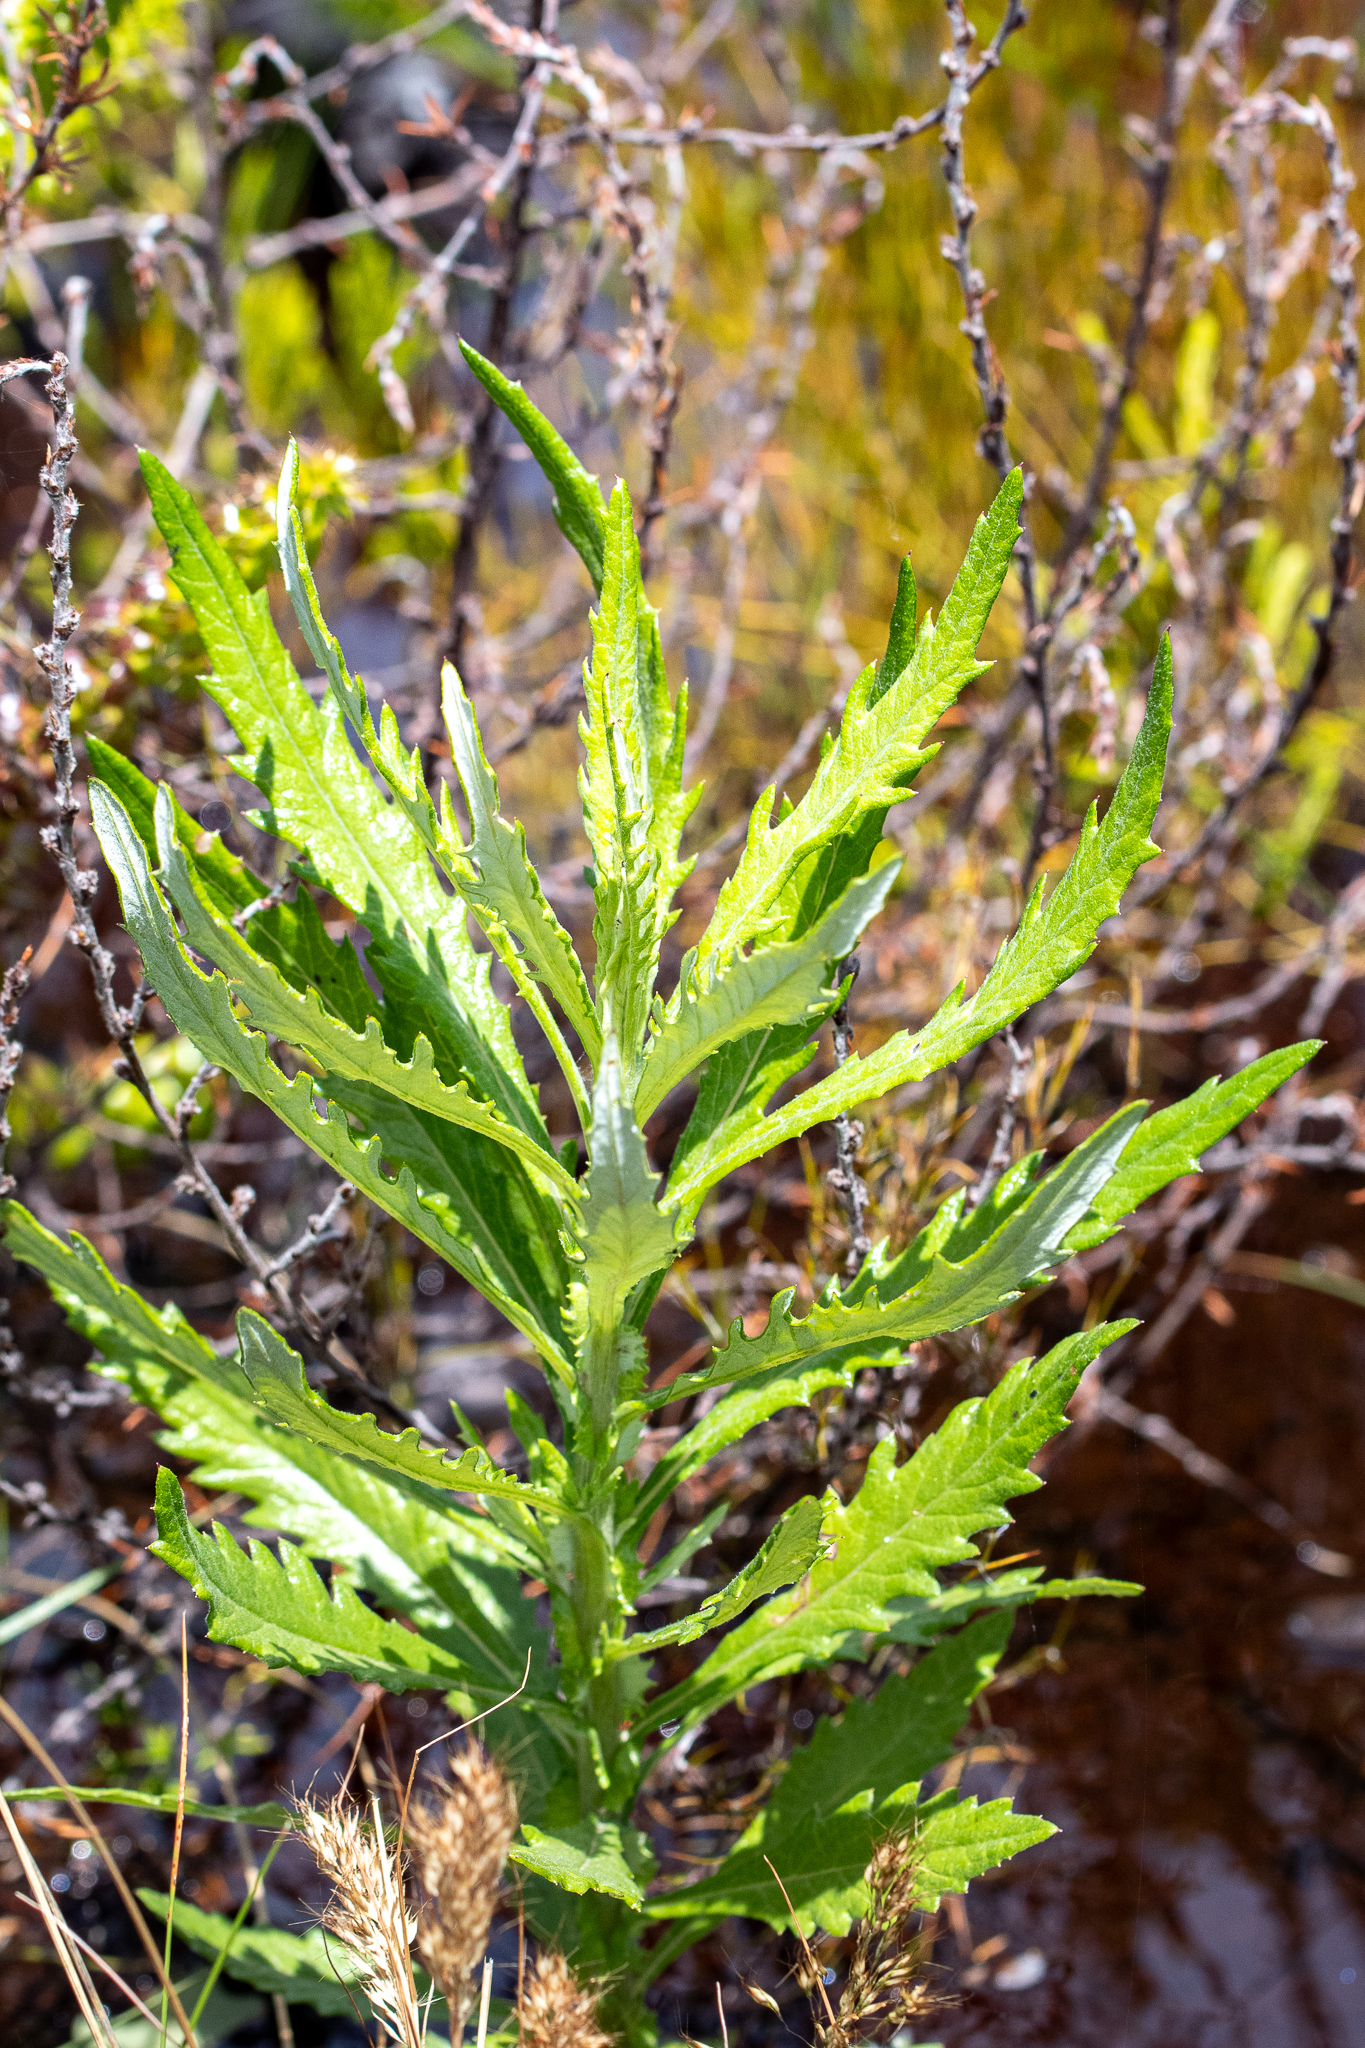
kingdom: Plantae
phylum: Tracheophyta
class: Magnoliopsida
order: Asterales
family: Asteraceae
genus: Senecio
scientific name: Senecio pterophorus
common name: Shoddy ragwort
